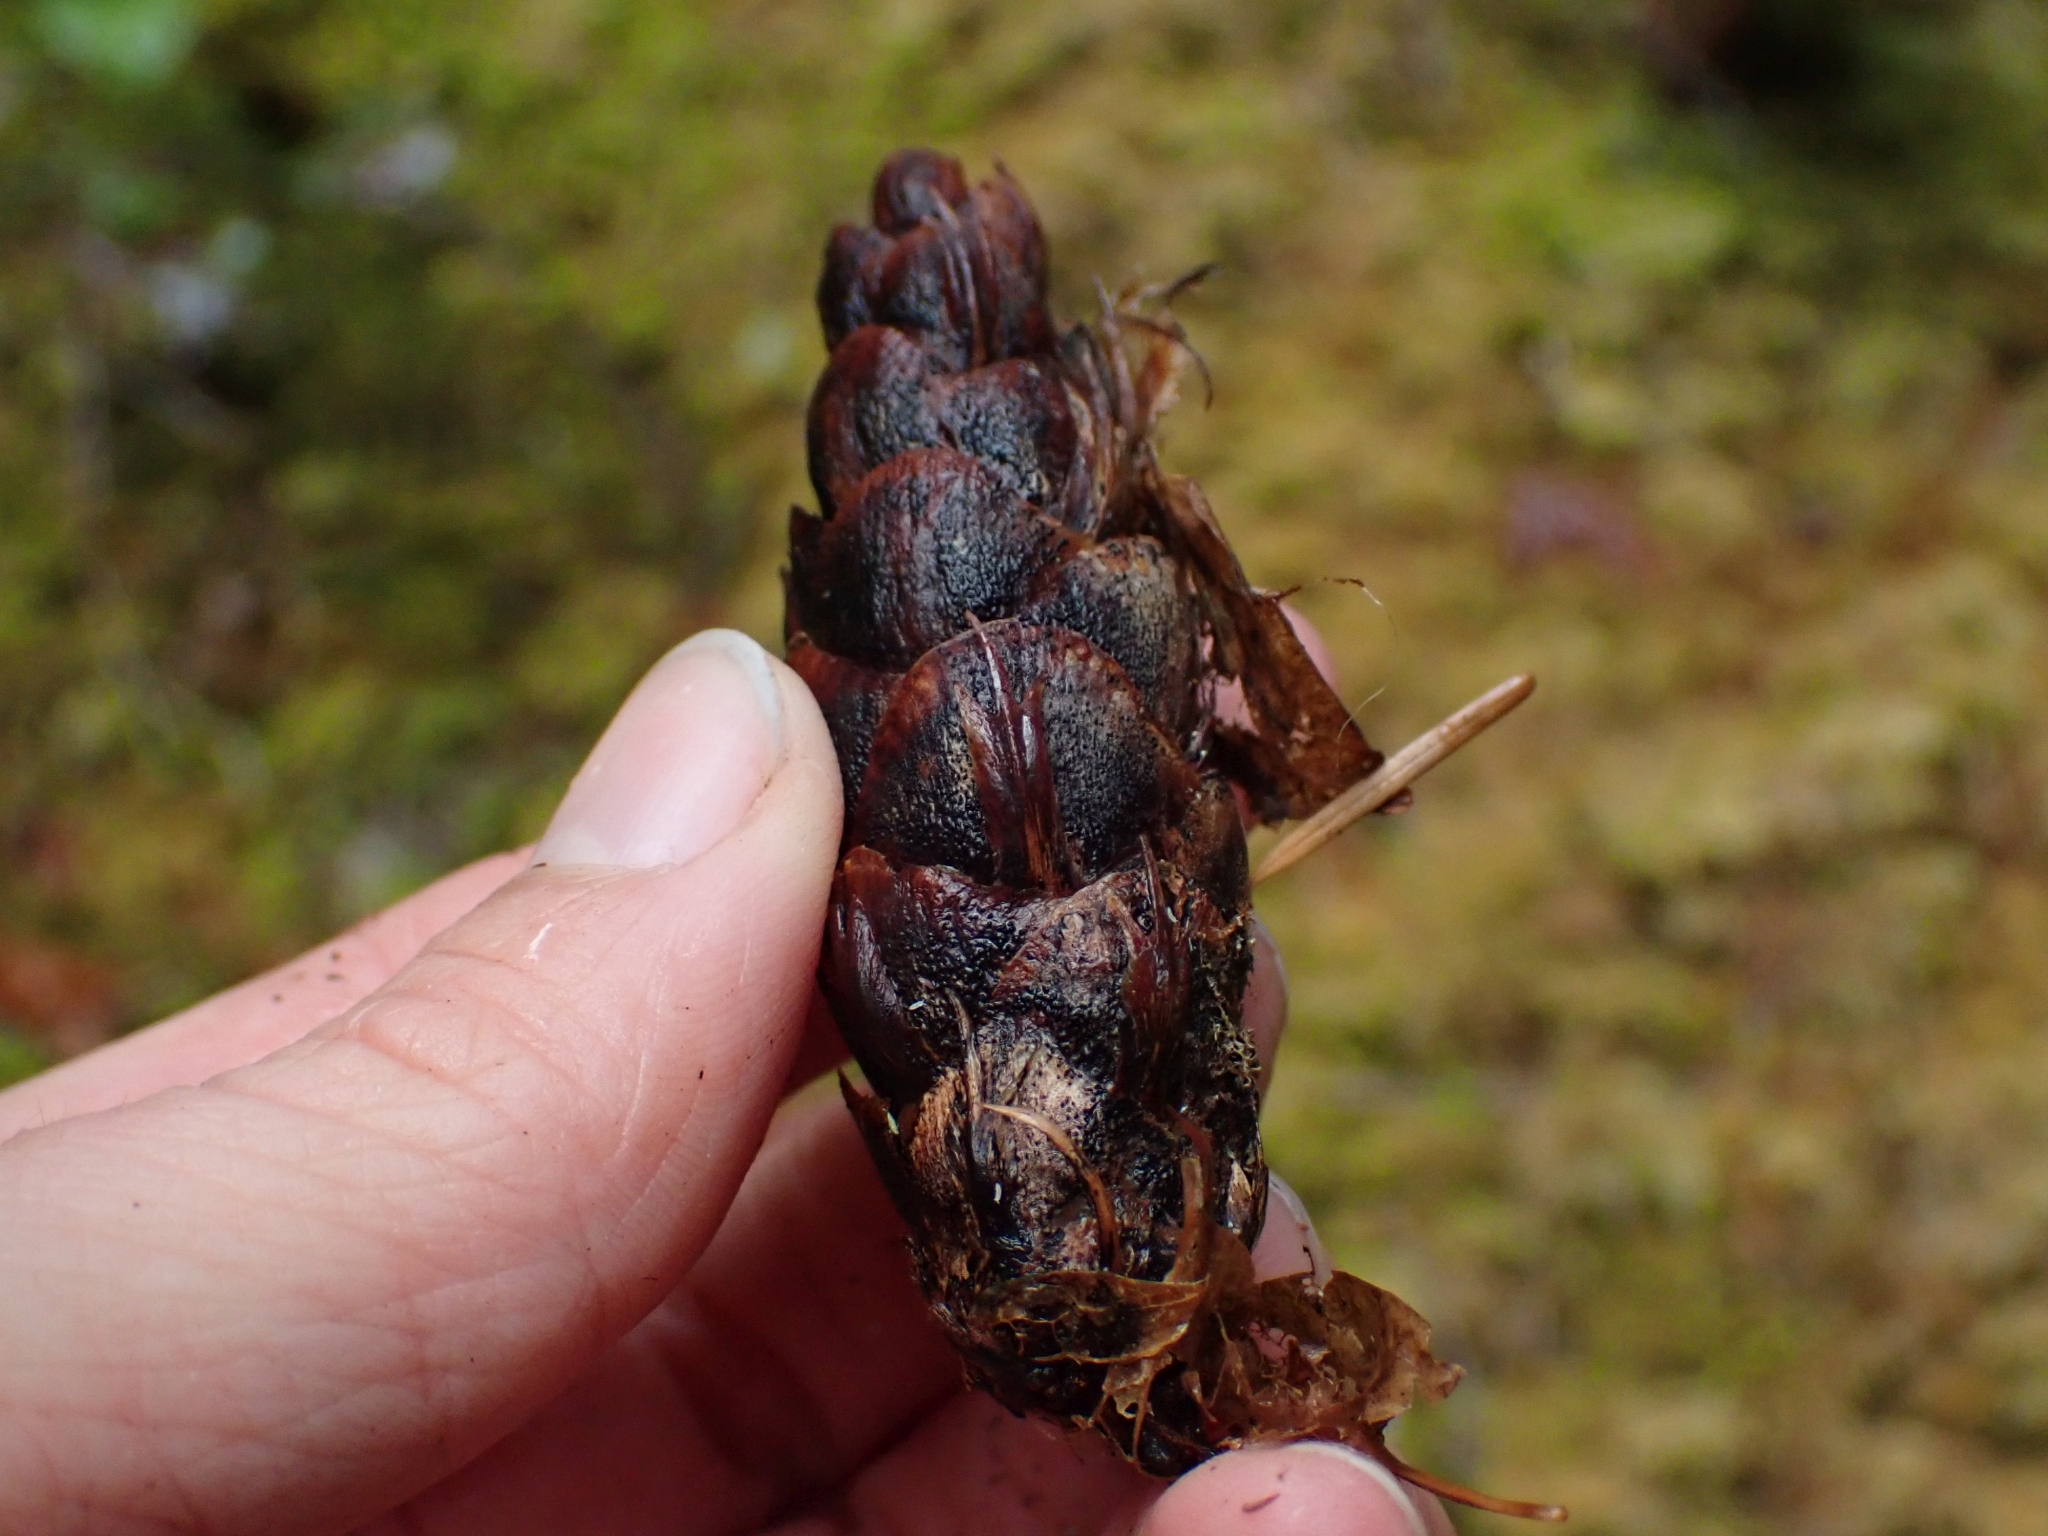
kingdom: Plantae
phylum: Tracheophyta
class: Pinopsida
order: Pinales
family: Pinaceae
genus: Pseudotsuga
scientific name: Pseudotsuga menziesii
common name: Douglas fir
